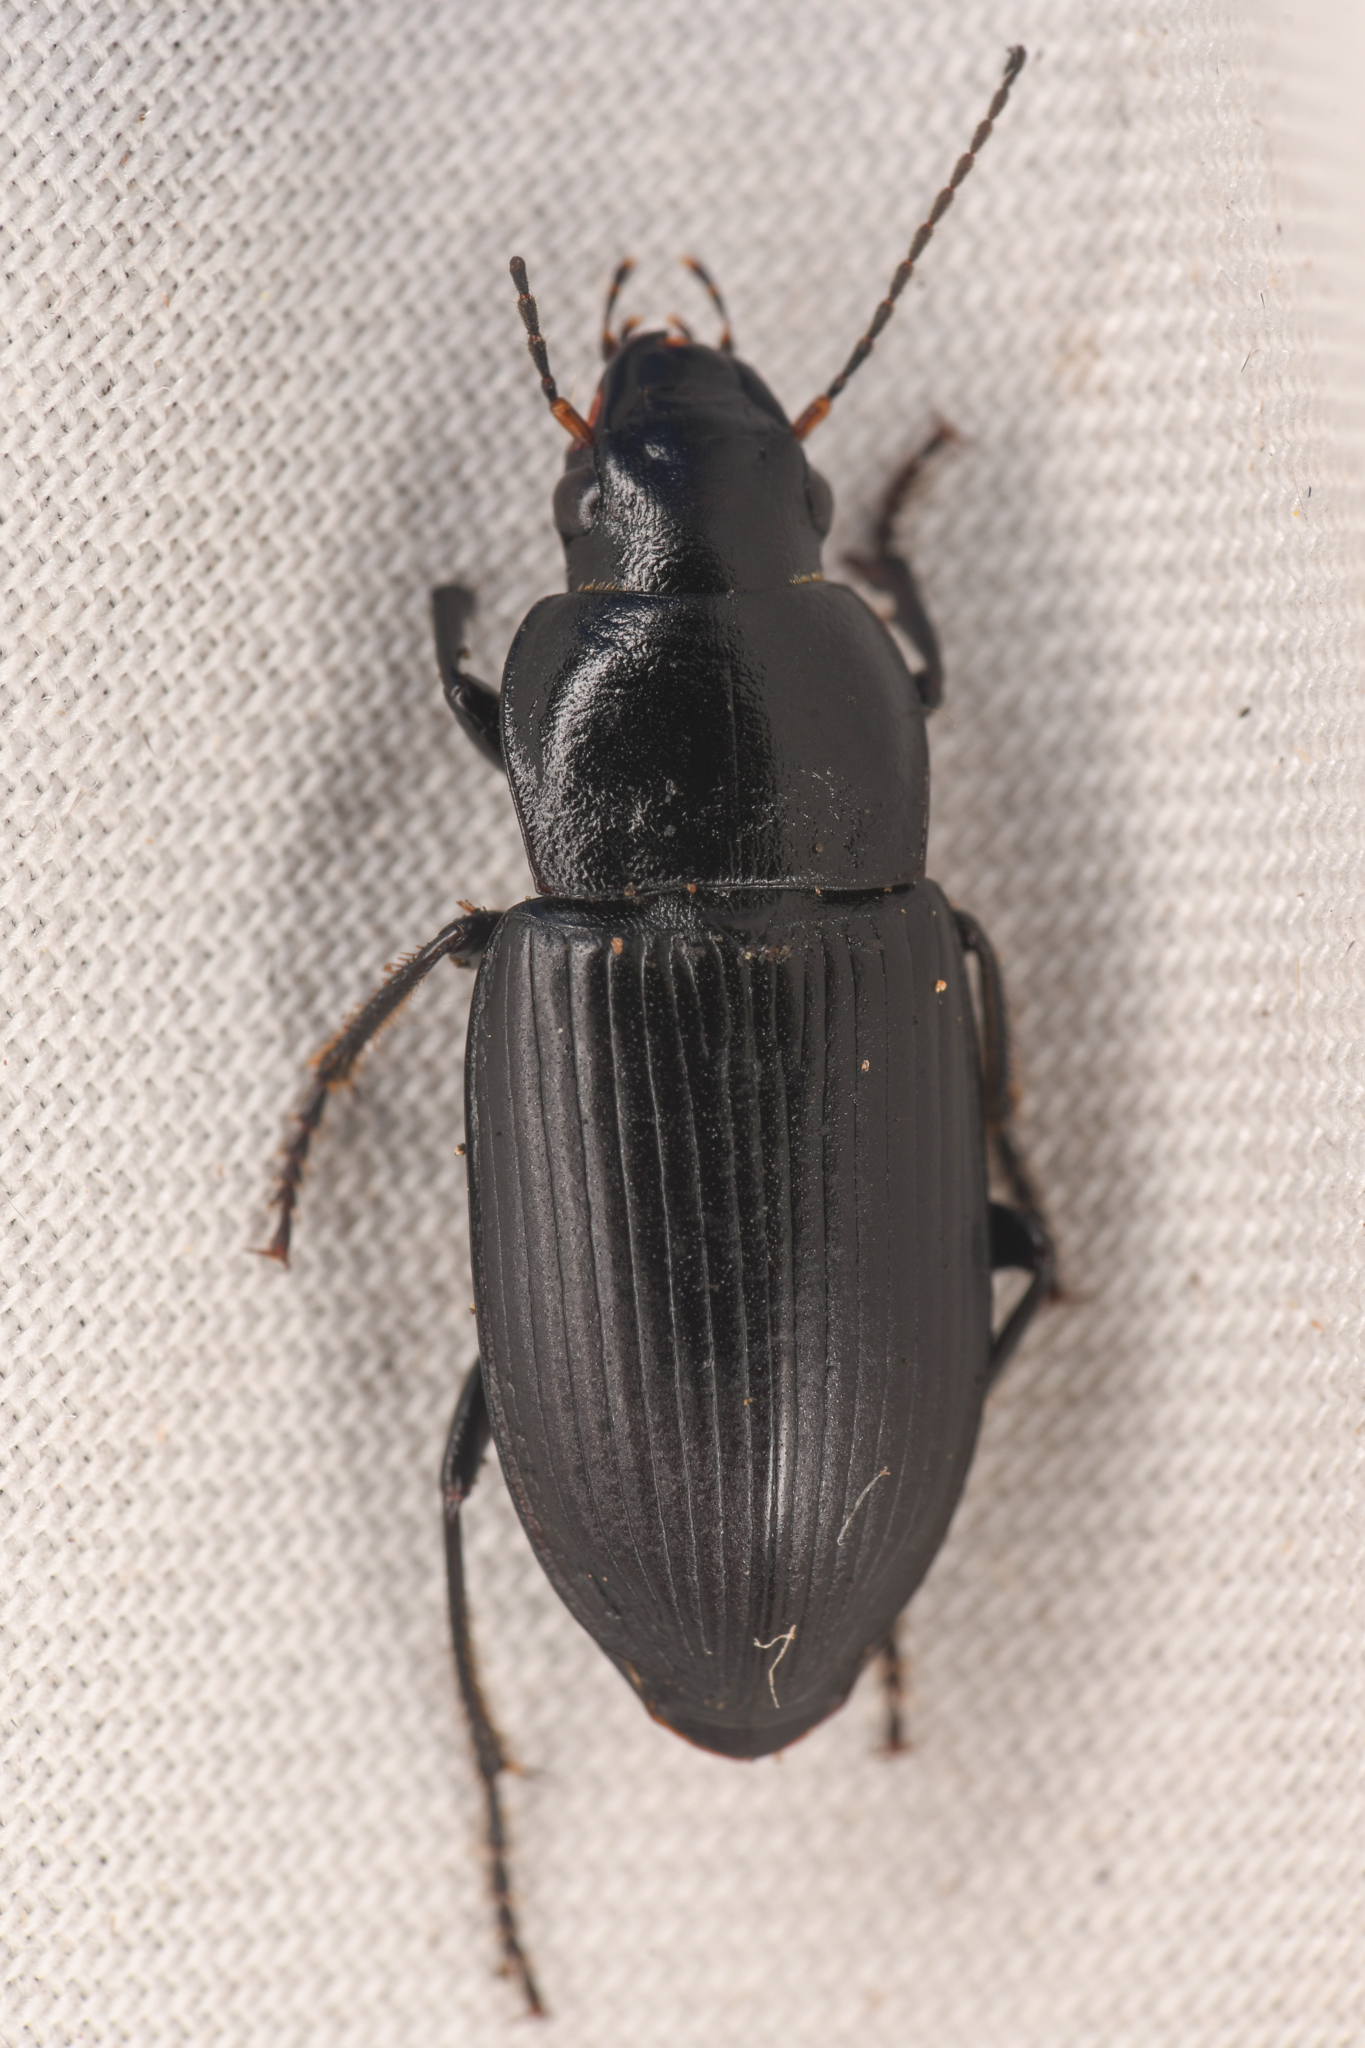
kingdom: Animalia
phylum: Arthropoda
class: Insecta
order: Coleoptera
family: Carabidae
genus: Anisodactylus
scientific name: Anisodactylus similis
